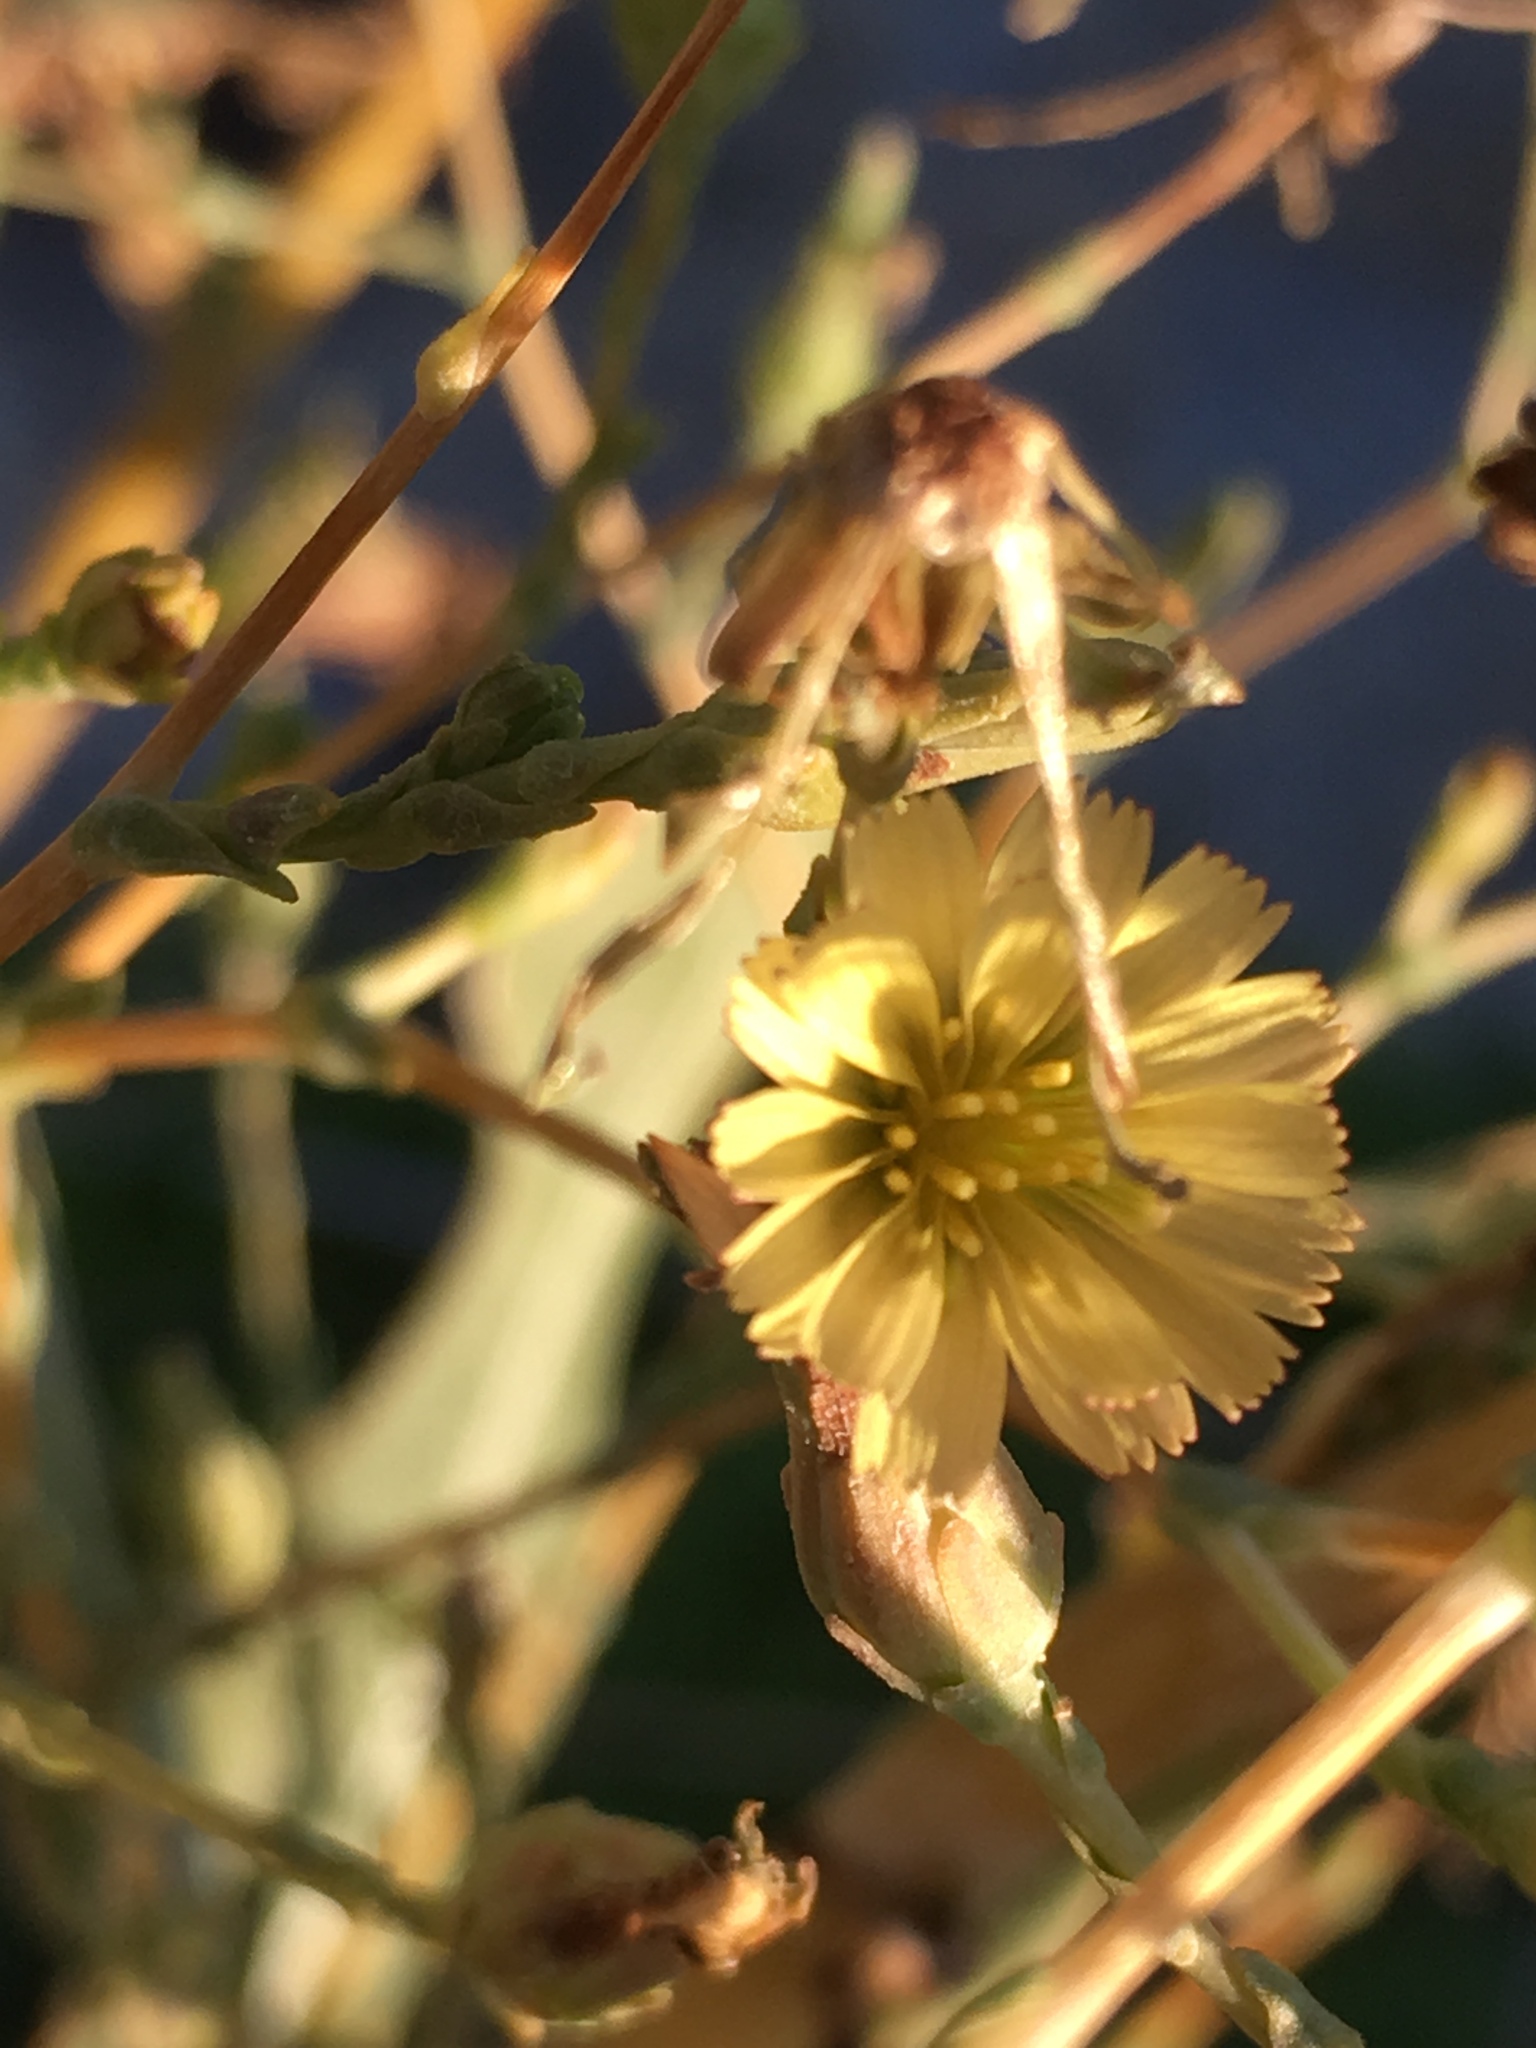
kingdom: Plantae
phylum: Tracheophyta
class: Magnoliopsida
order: Asterales
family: Asteraceae
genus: Lactuca
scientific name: Lactuca serriola
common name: Prickly lettuce
